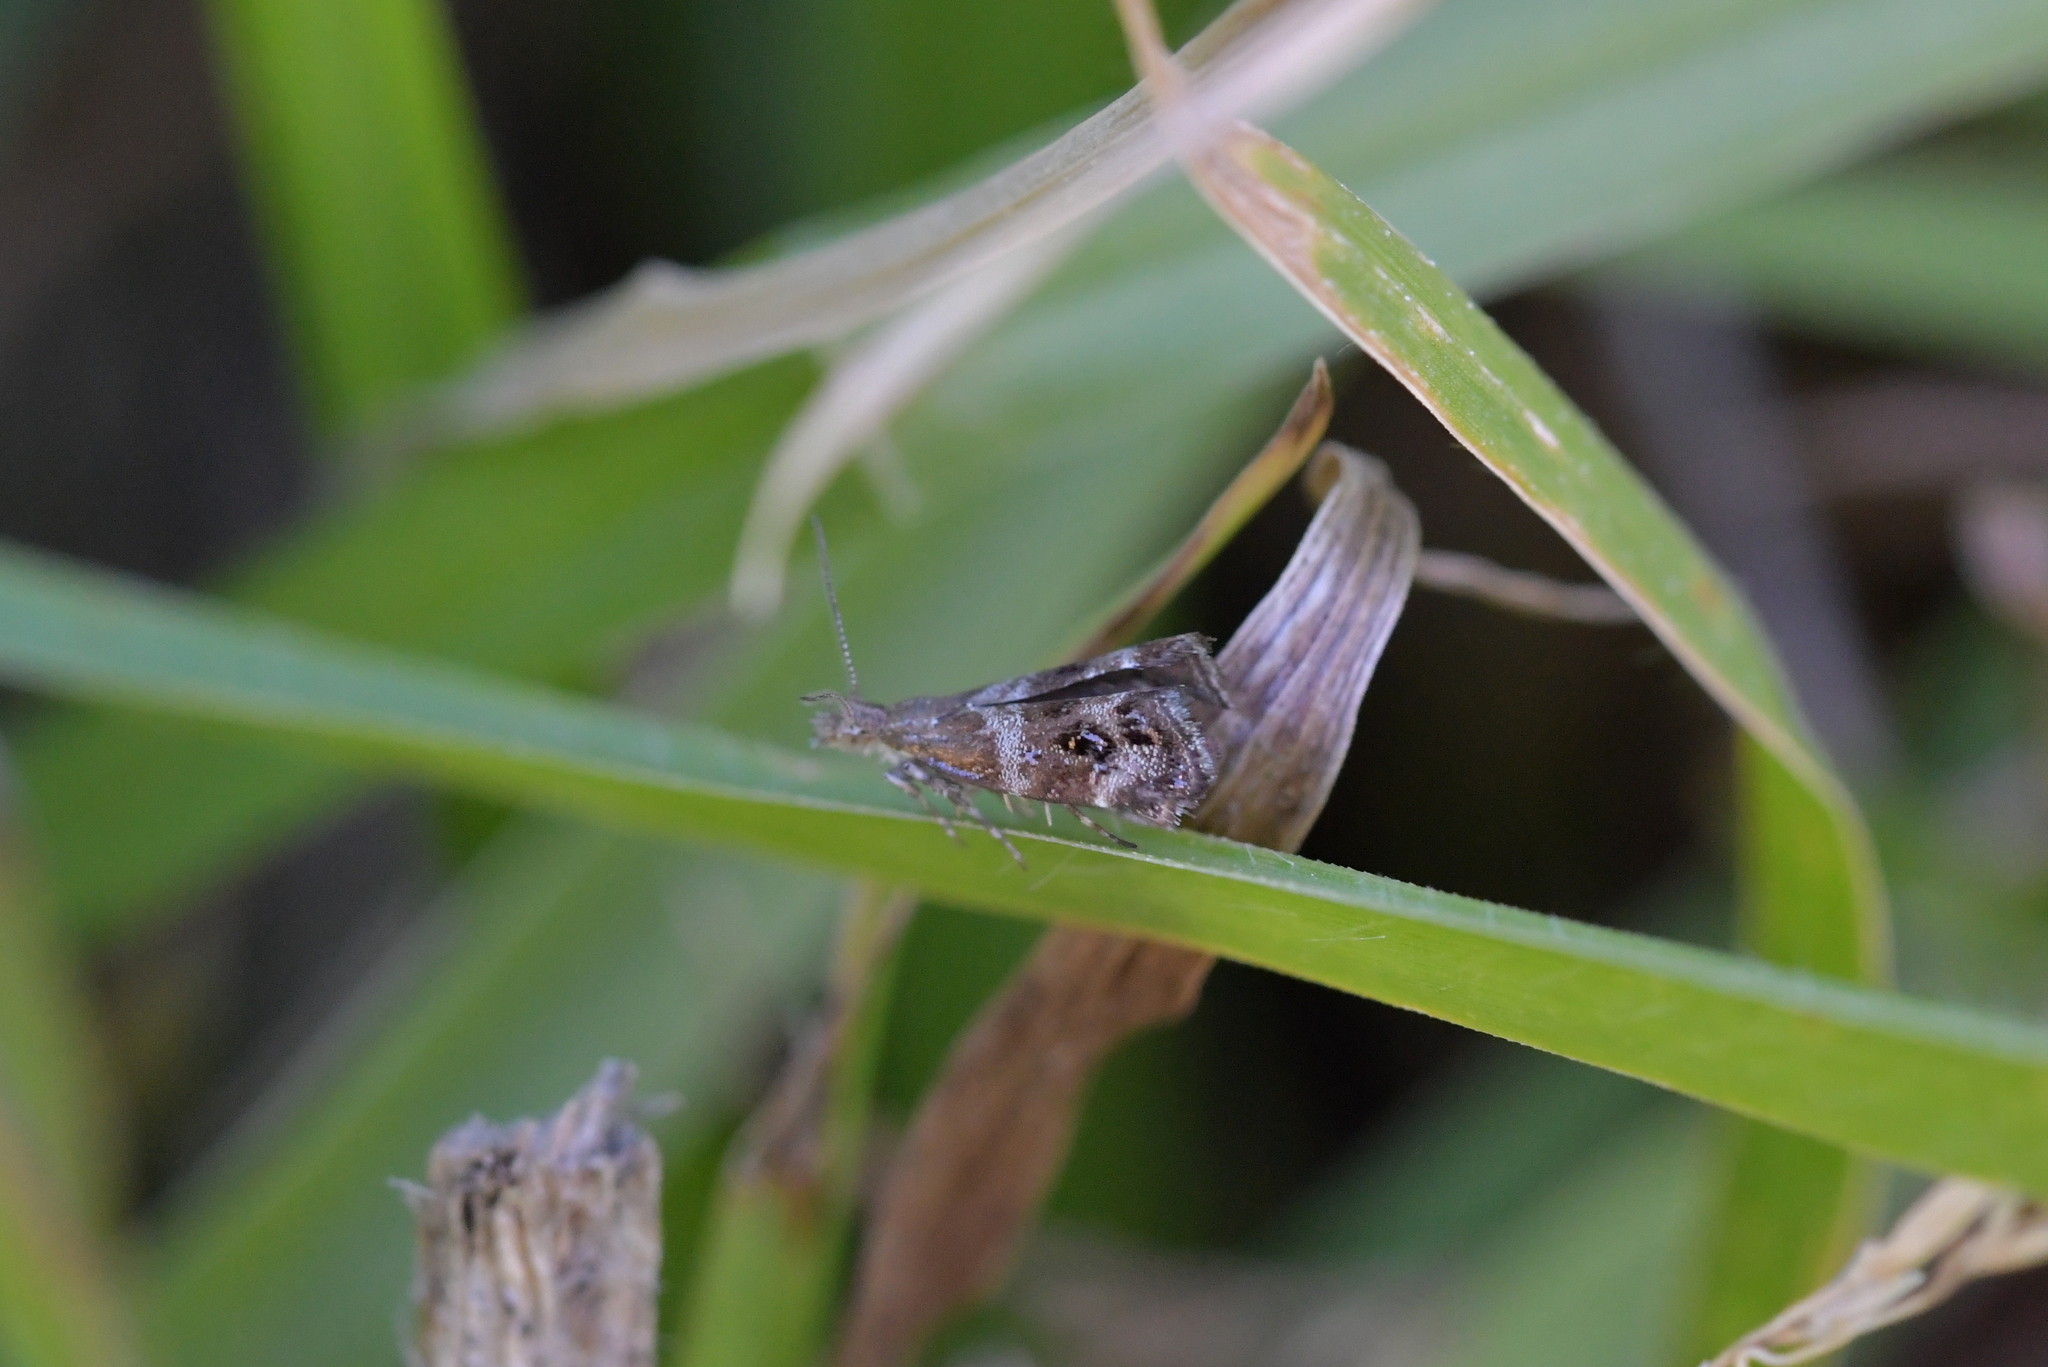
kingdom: Animalia
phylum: Arthropoda
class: Insecta
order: Lepidoptera
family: Choreutidae
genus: Tebenna
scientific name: Tebenna micalis
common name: Vagrant twitcher
